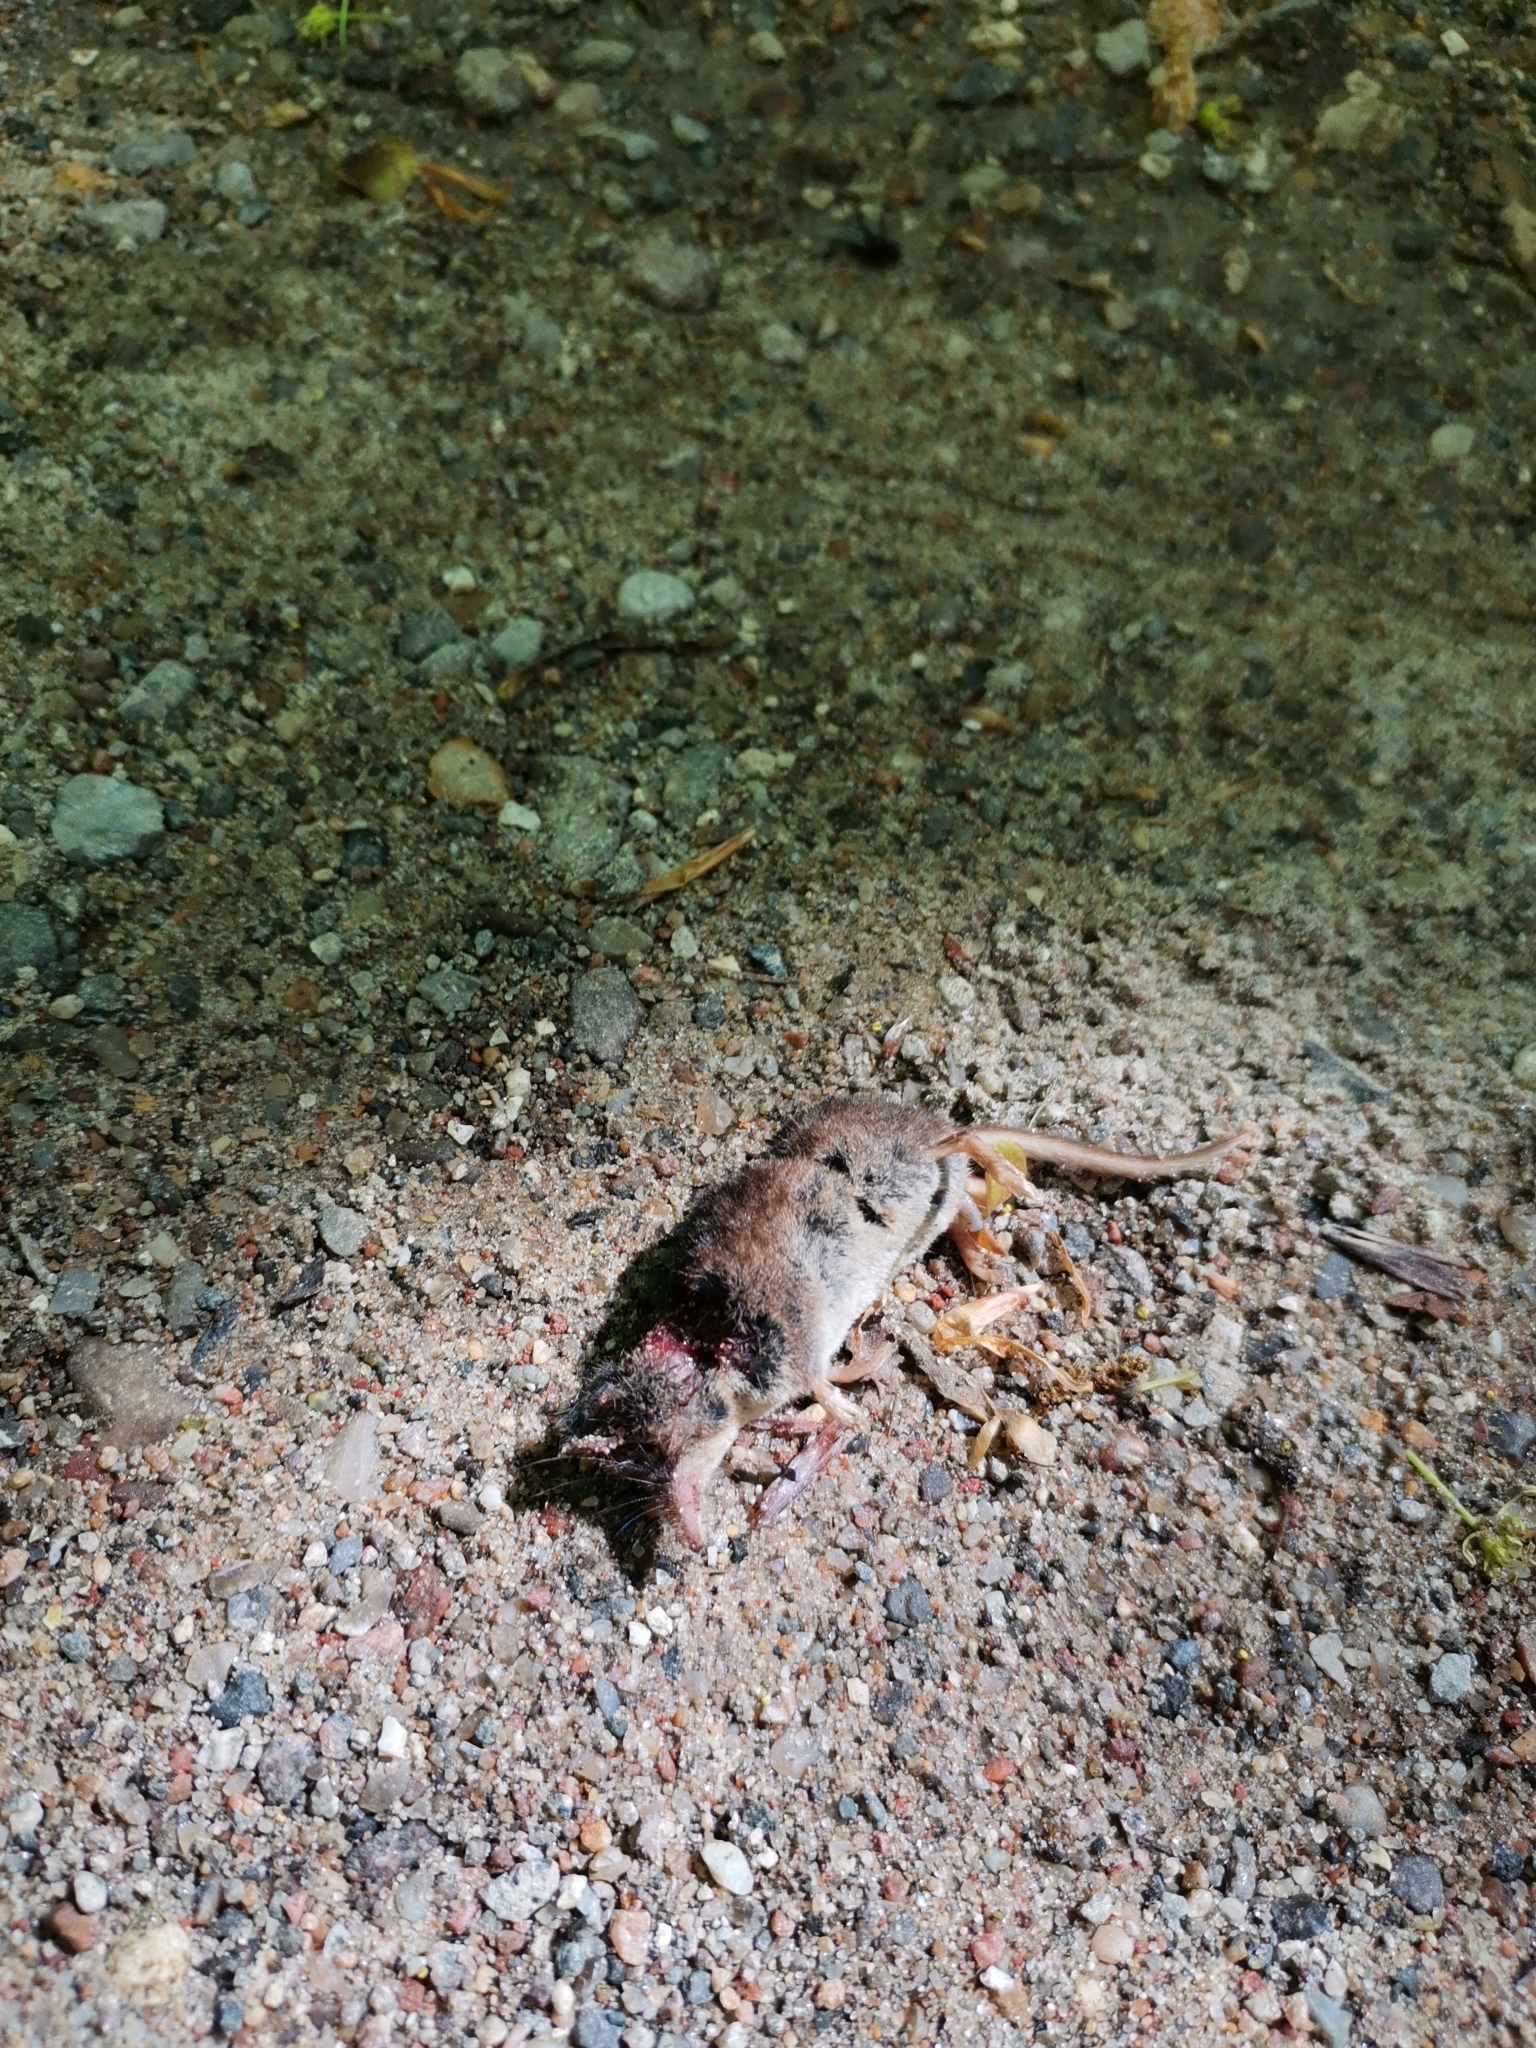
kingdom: Animalia
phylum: Chordata
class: Mammalia
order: Soricomorpha
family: Soricidae
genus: Sorex
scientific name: Sorex araneus
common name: Common shrew
